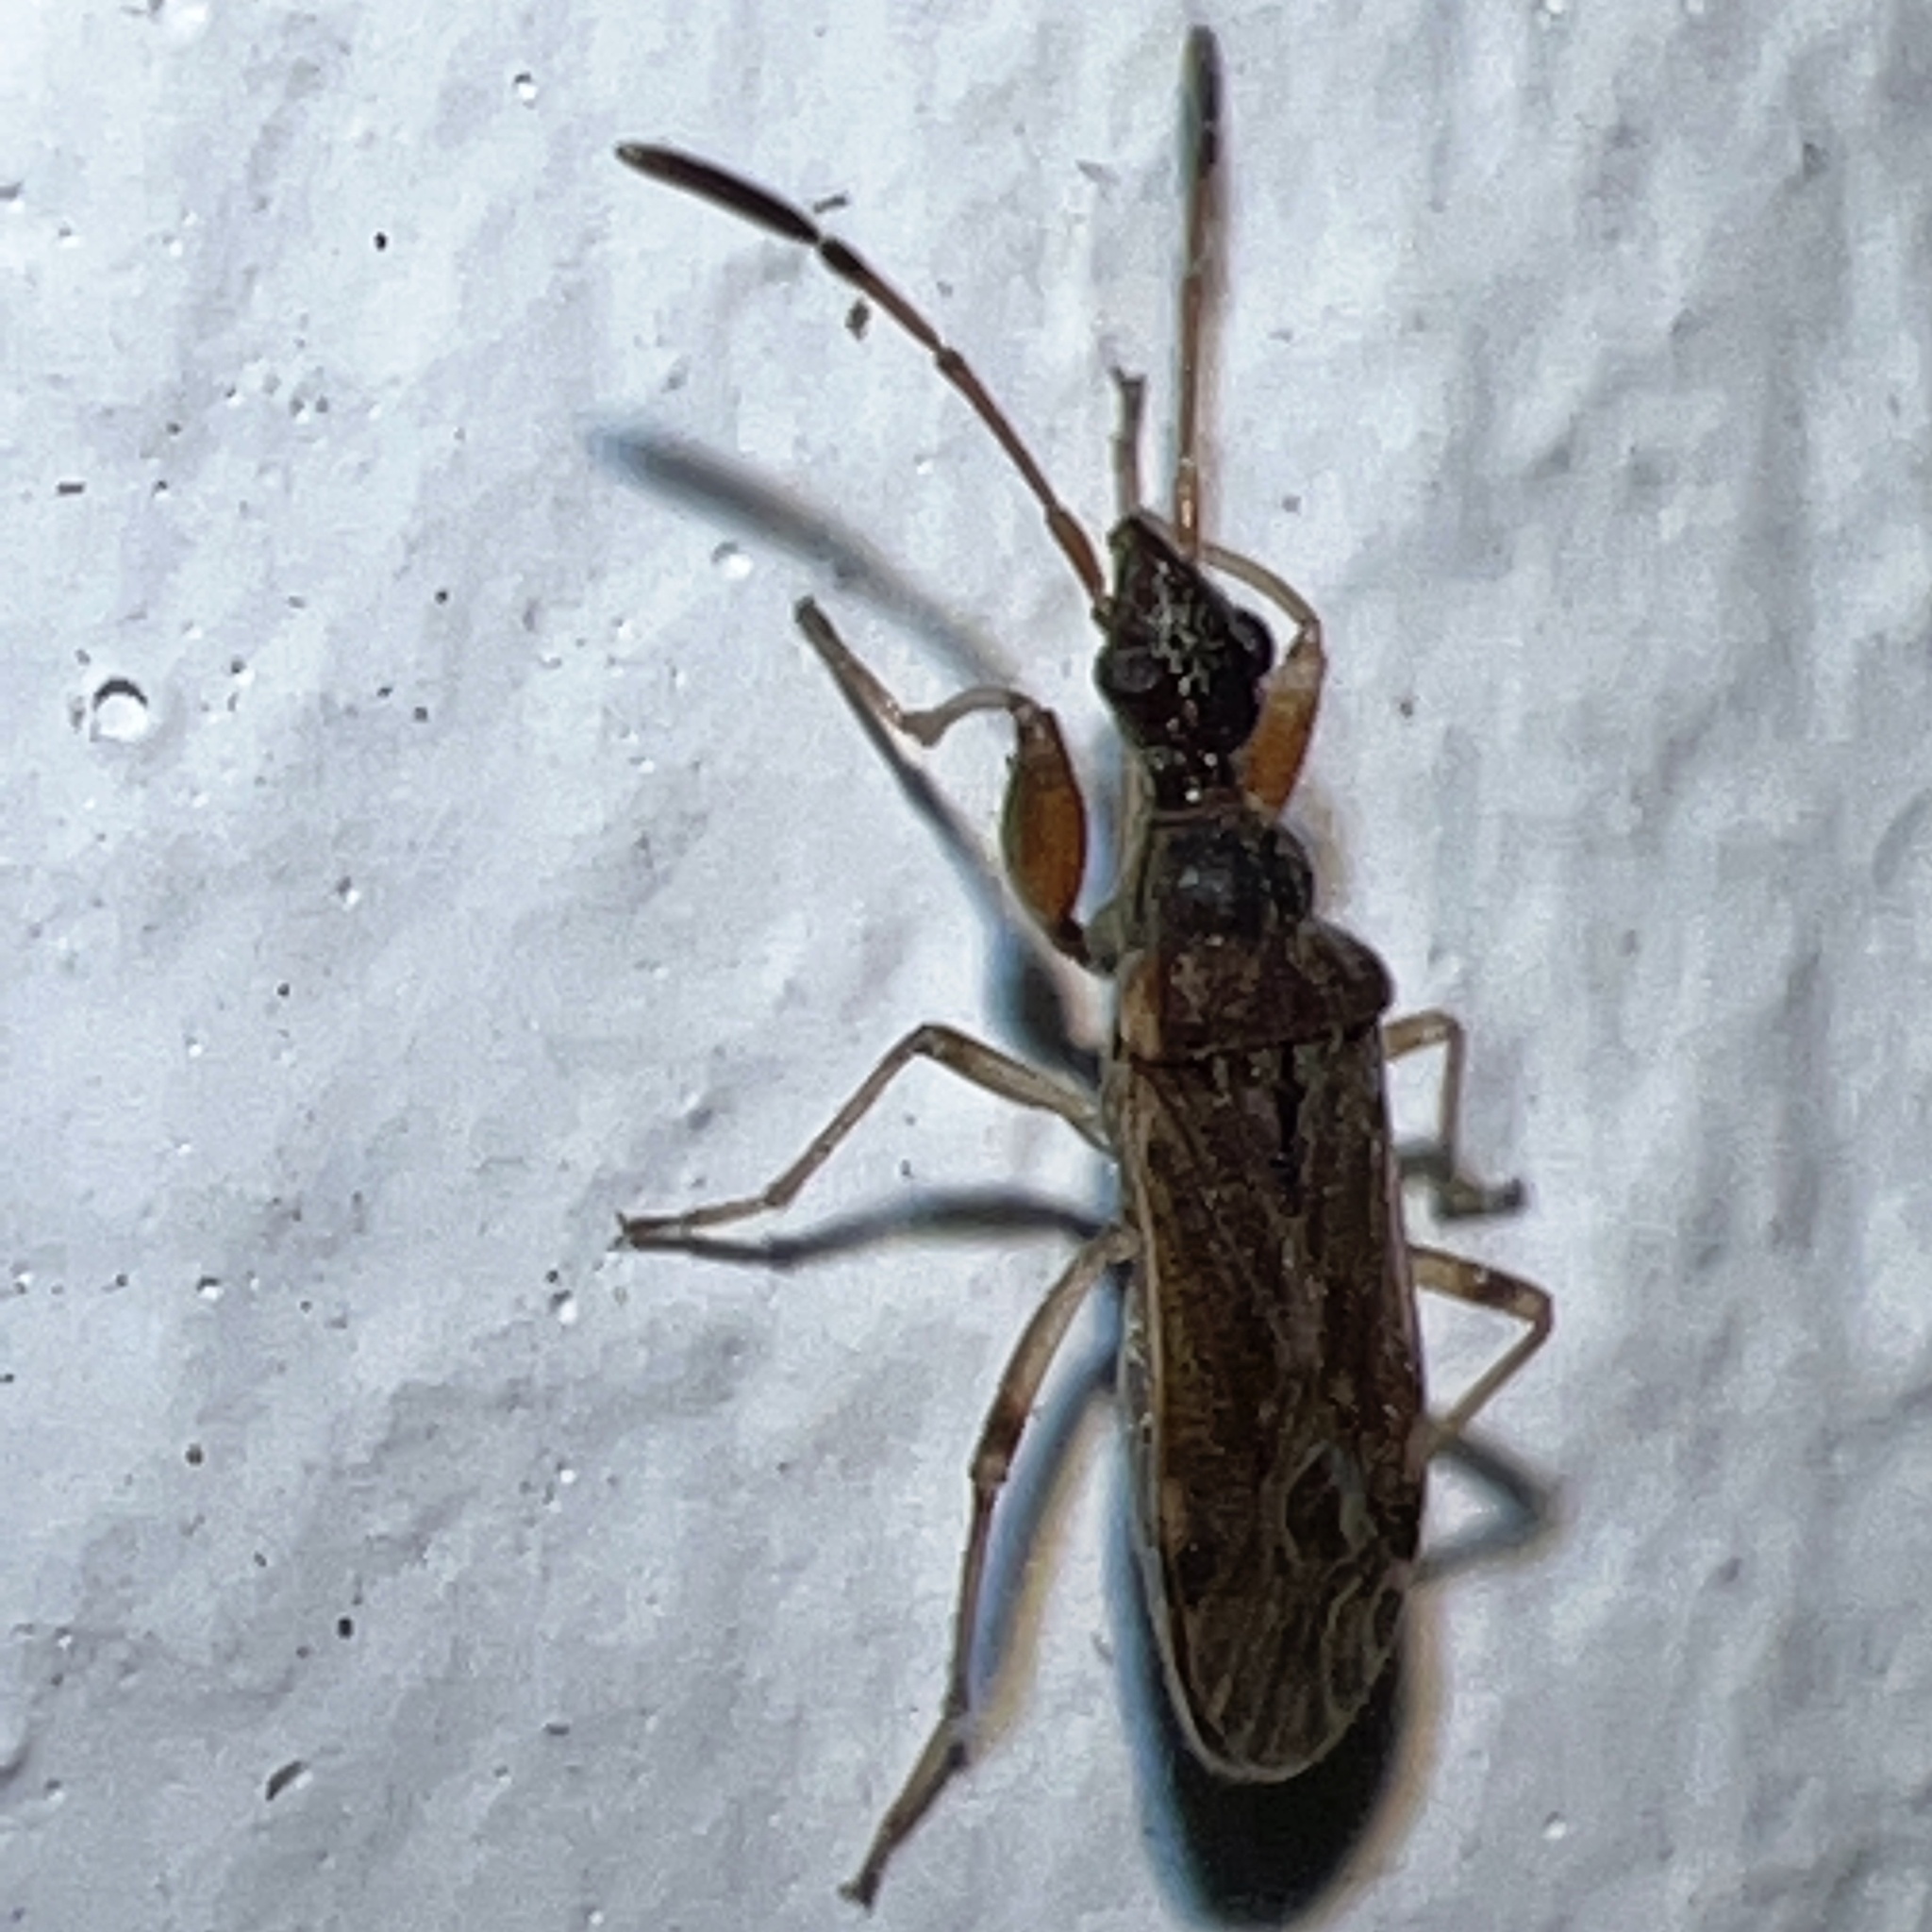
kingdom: Animalia
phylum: Arthropoda
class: Insecta
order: Hemiptera
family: Rhyparochromidae
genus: Heraeus
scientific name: Heraeus plebejus
